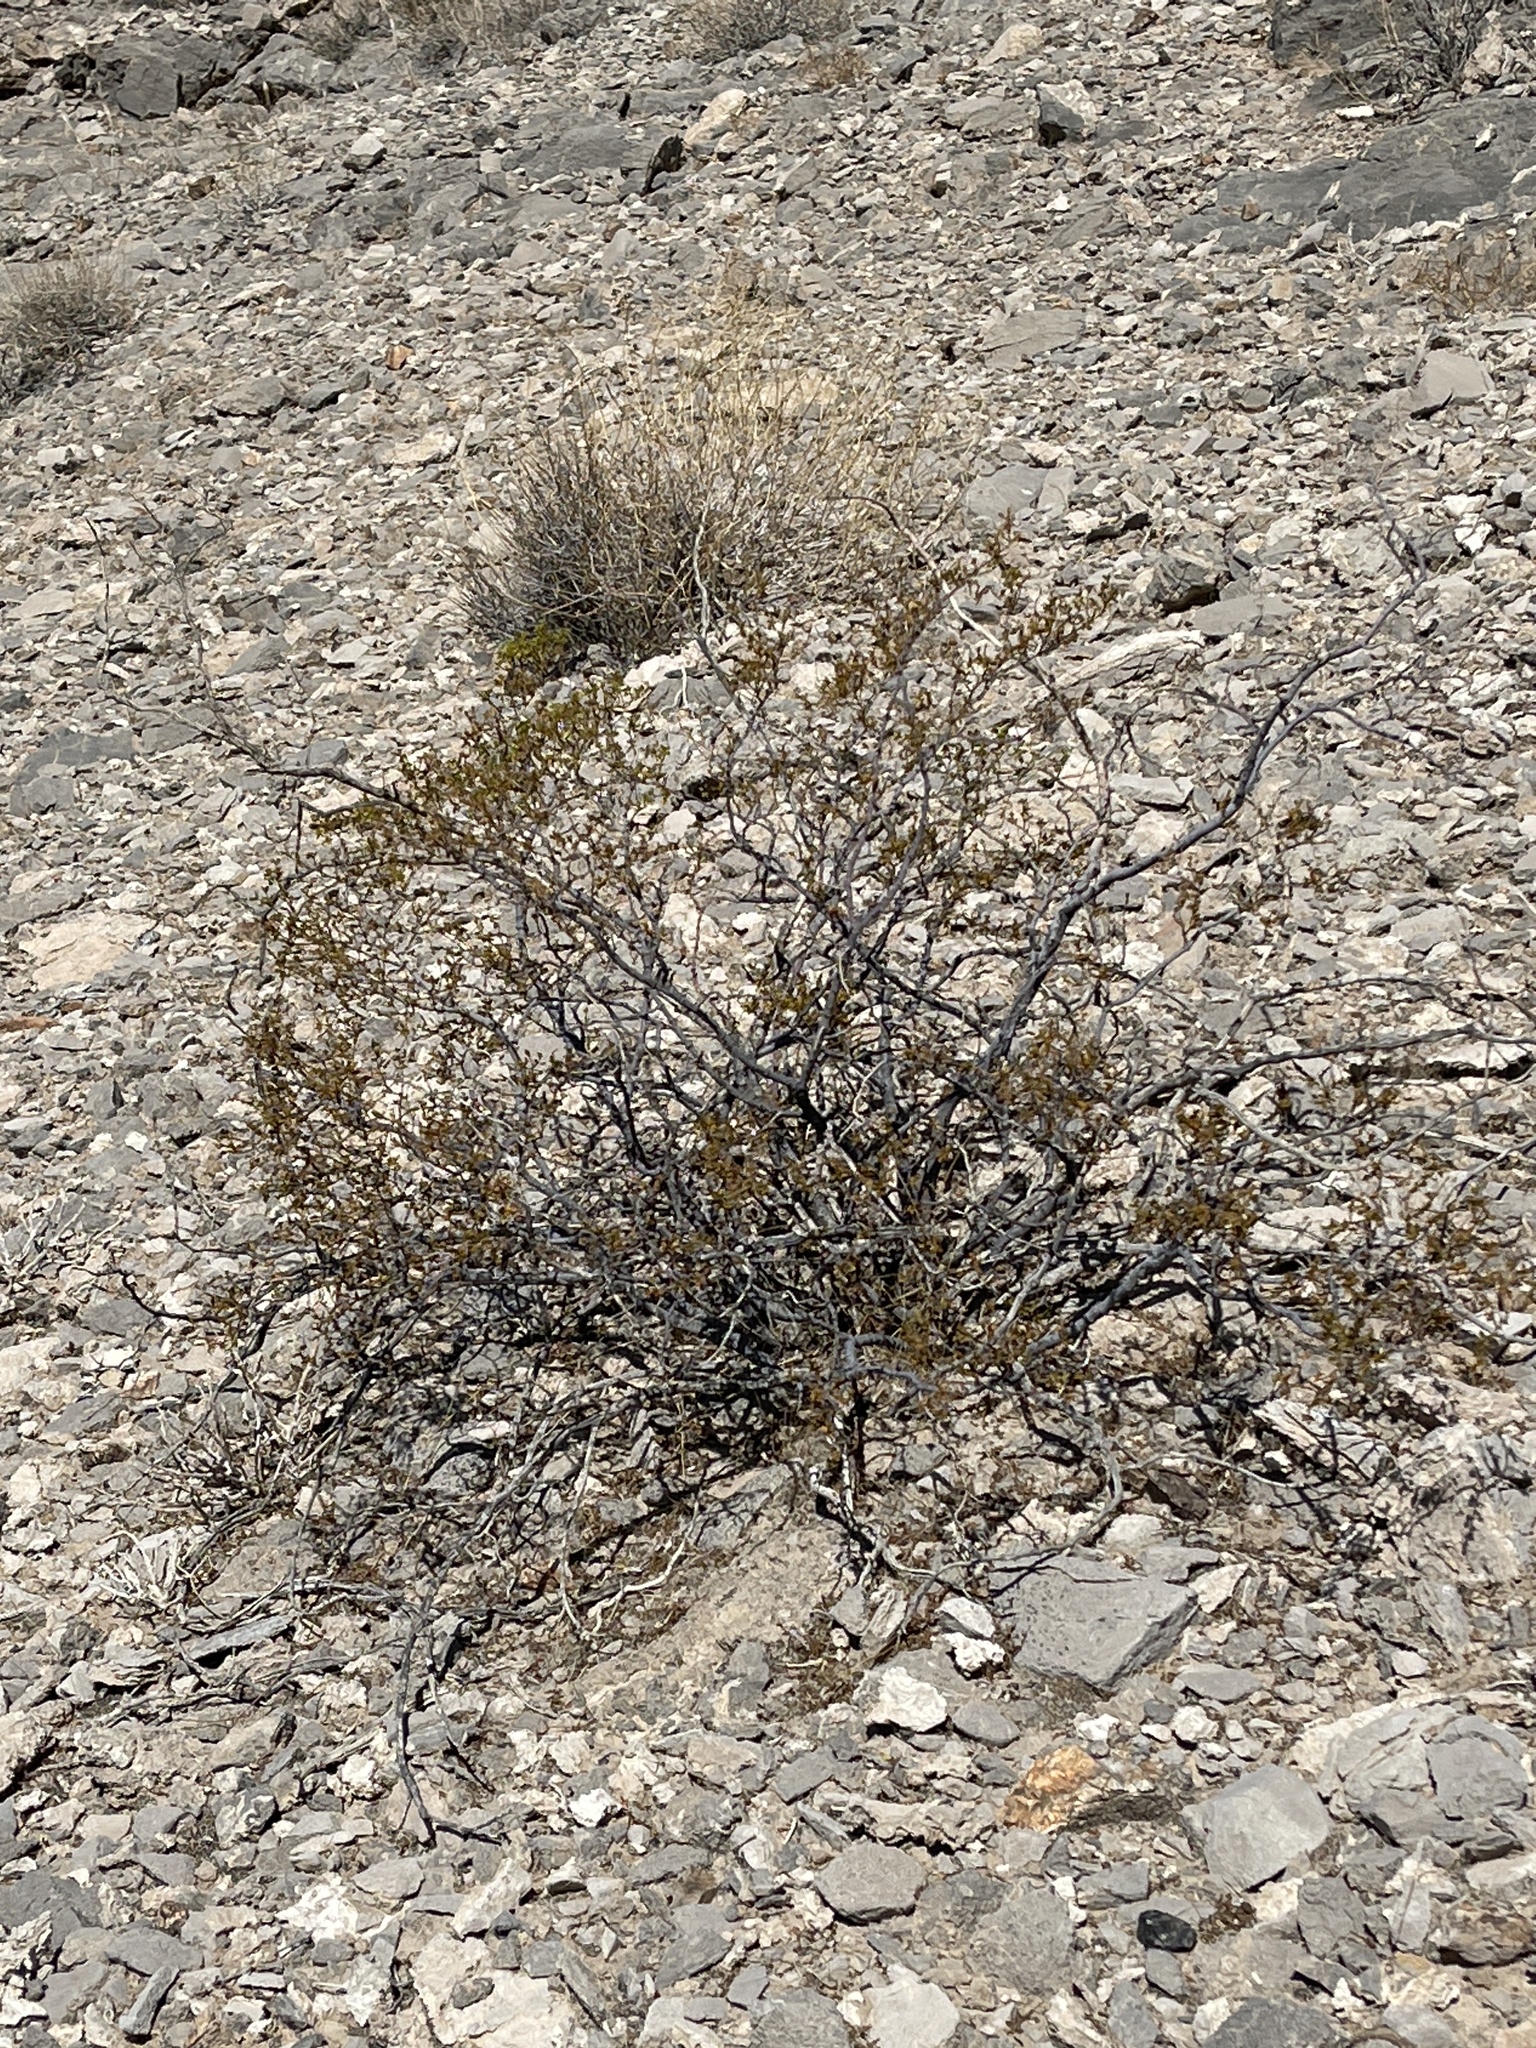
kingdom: Plantae
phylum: Tracheophyta
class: Magnoliopsida
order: Zygophyllales
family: Zygophyllaceae
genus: Larrea
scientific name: Larrea tridentata
